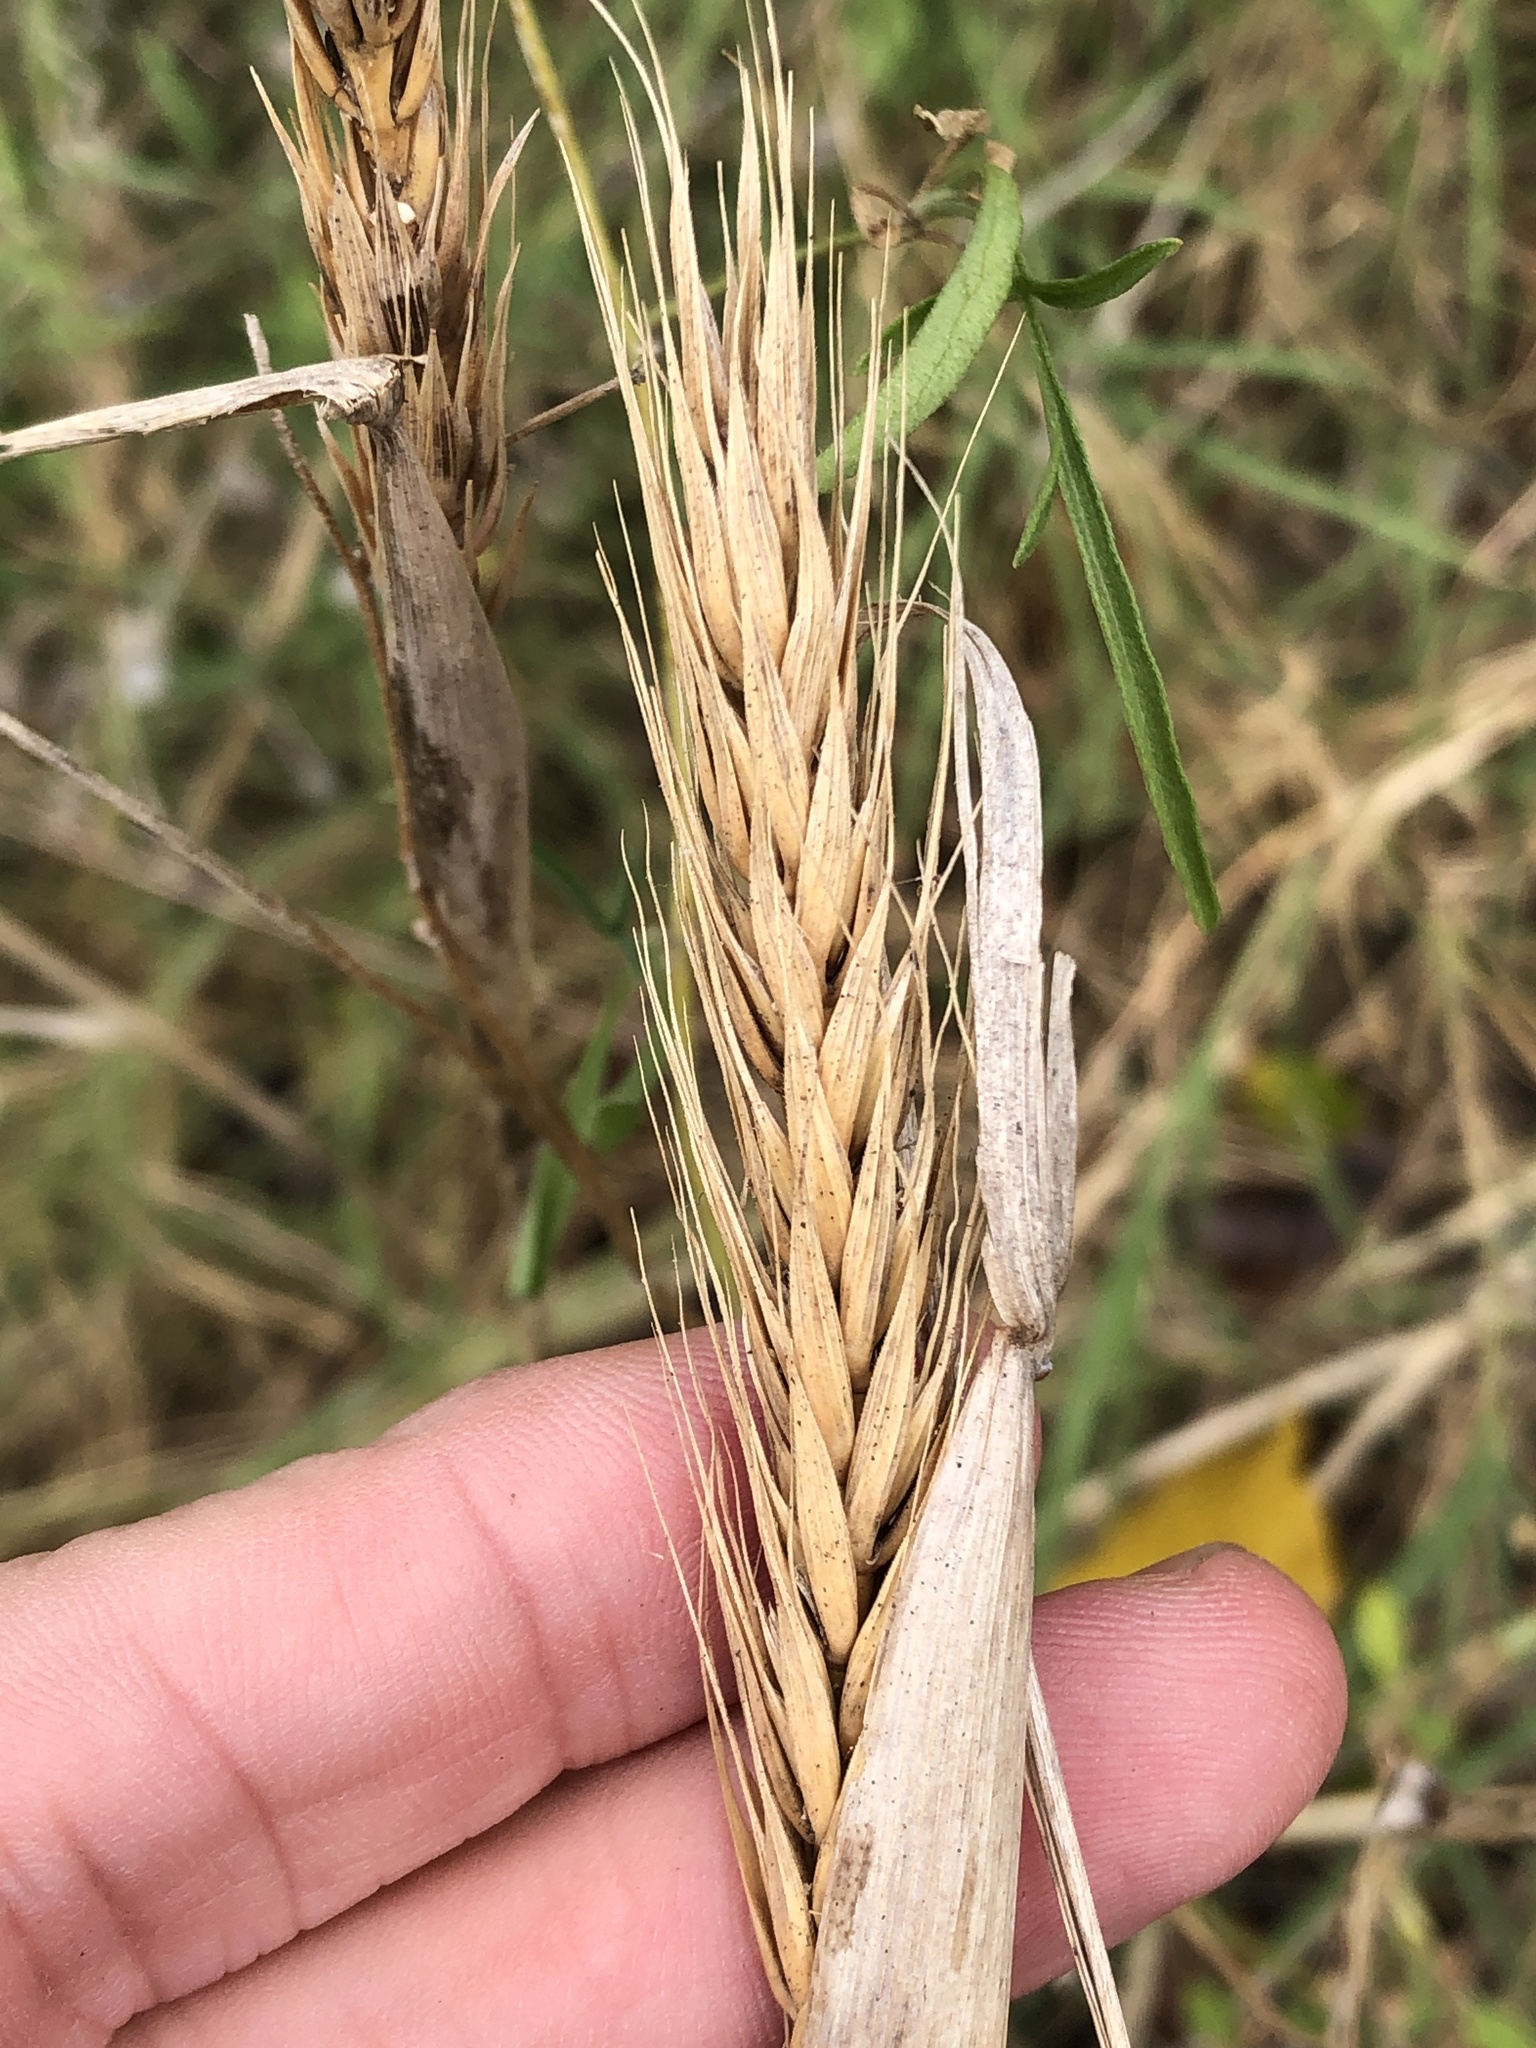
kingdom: Plantae
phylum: Tracheophyta
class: Liliopsida
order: Poales
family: Poaceae
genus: Elymus
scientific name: Elymus virginicus
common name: Common eastern wildrye
